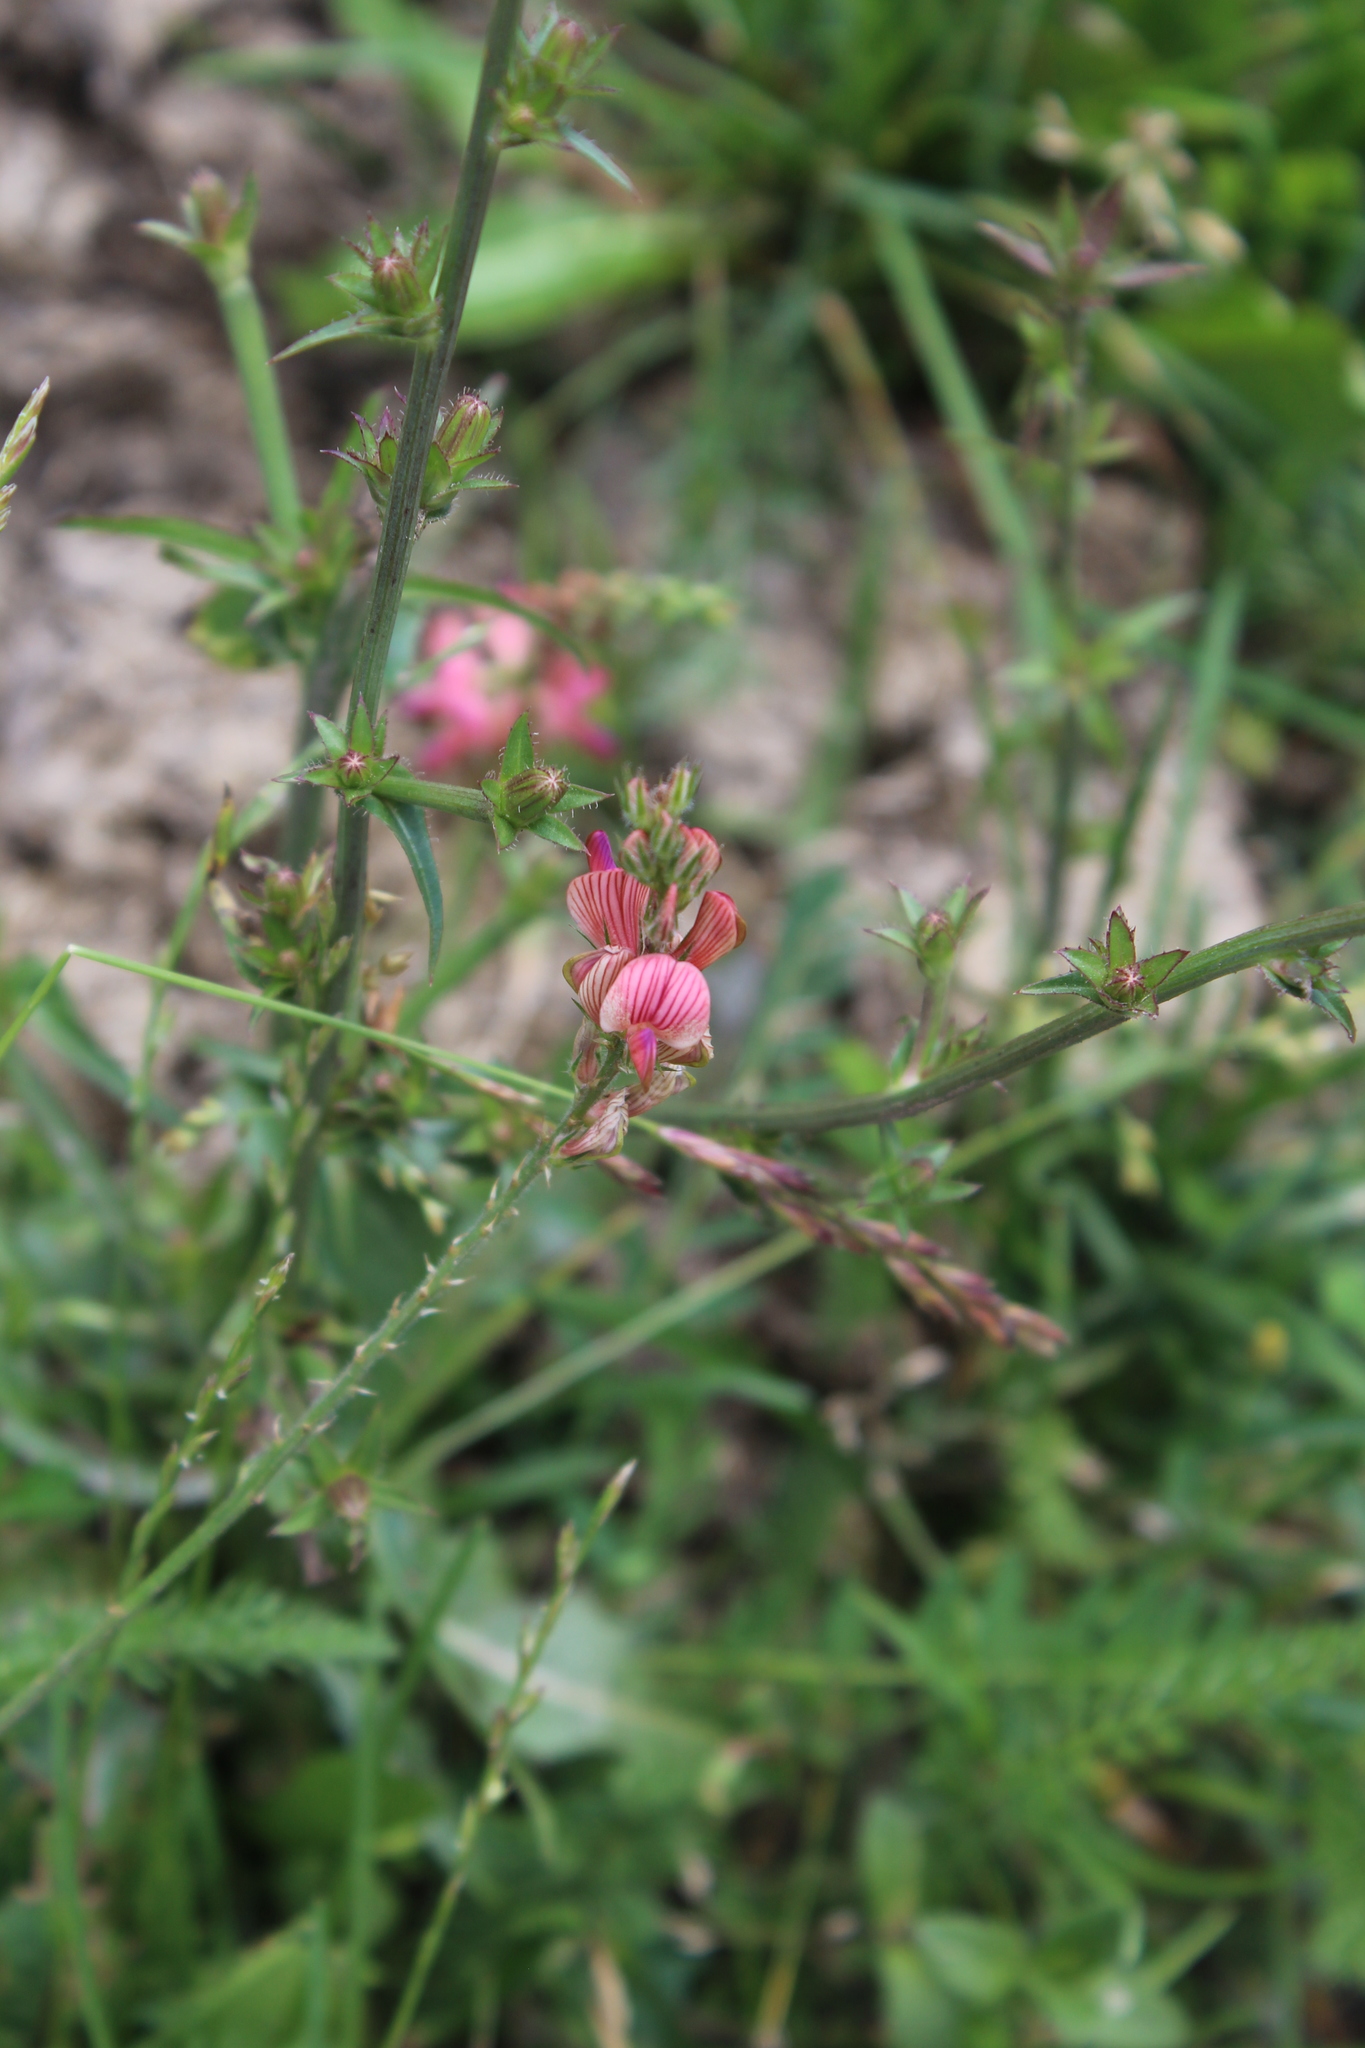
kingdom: Plantae
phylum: Tracheophyta
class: Magnoliopsida
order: Fabales
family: Fabaceae
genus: Onobrychis
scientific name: Onobrychis inermis
